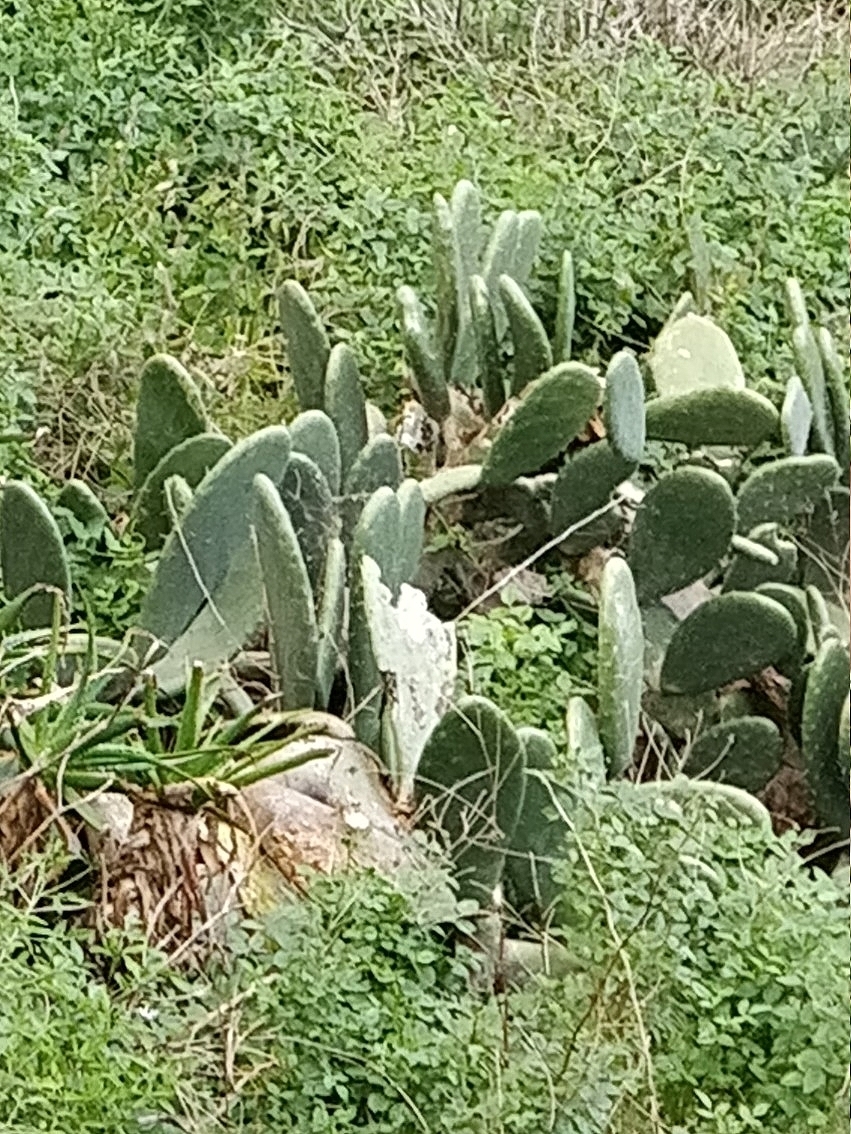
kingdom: Plantae
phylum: Tracheophyta
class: Magnoliopsida
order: Caryophyllales
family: Cactaceae
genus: Opuntia
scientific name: Opuntia ficus-indica
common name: Barbary fig
